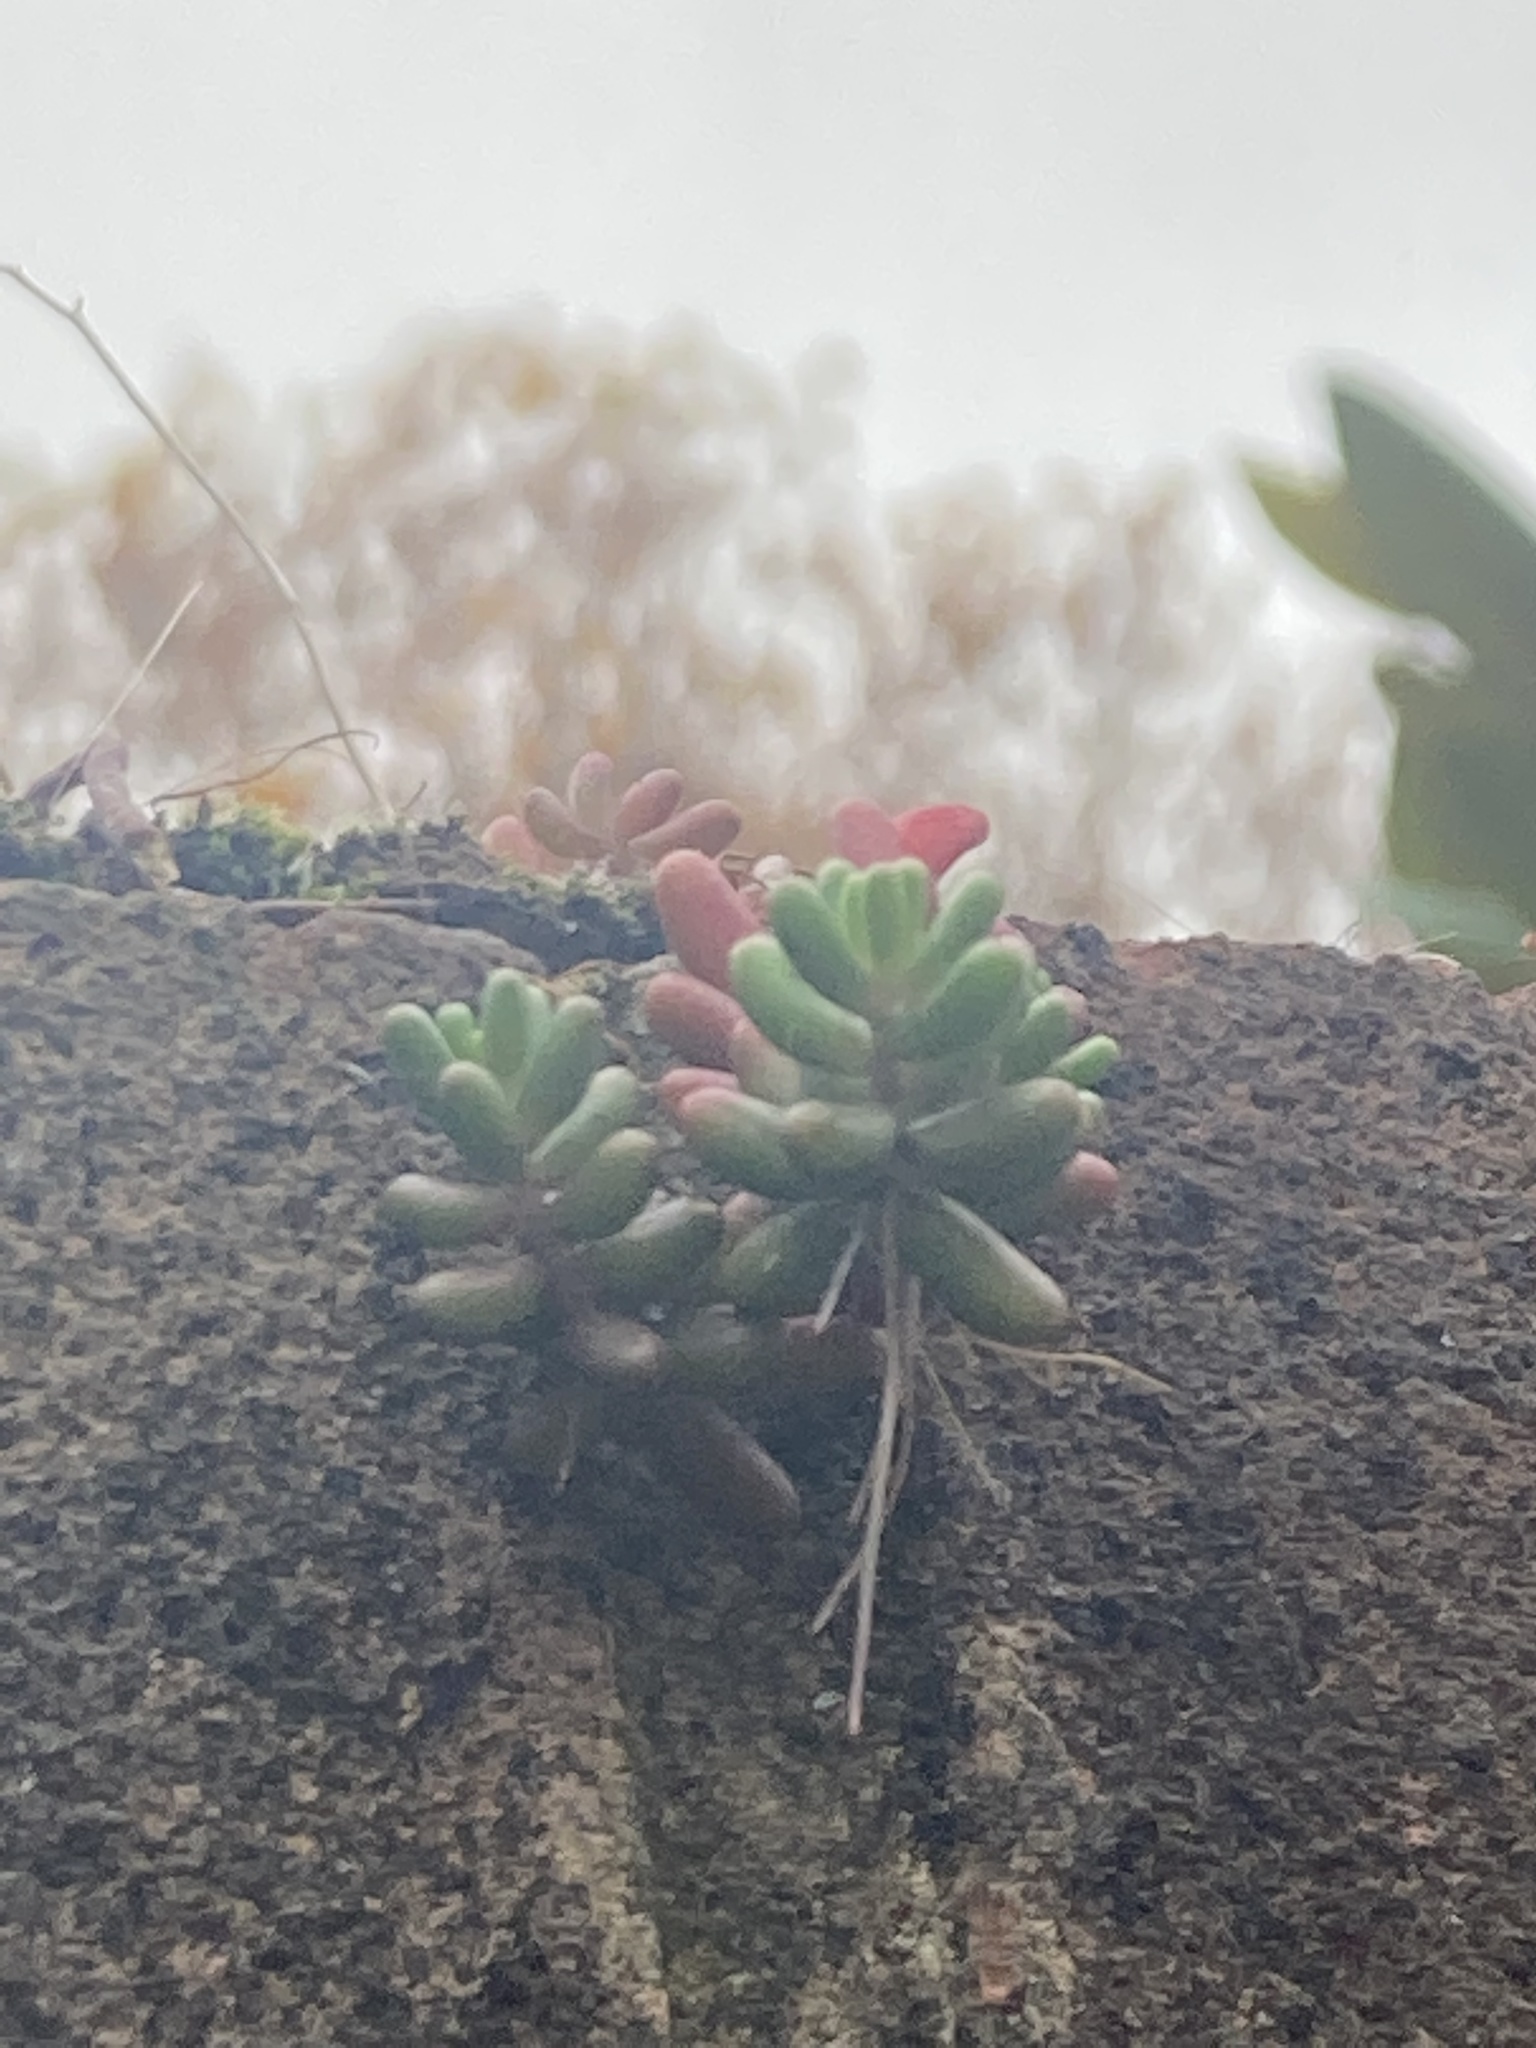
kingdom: Plantae
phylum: Tracheophyta
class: Magnoliopsida
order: Saxifragales
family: Crassulaceae
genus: Sedum
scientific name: Sedum album
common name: White stonecrop
